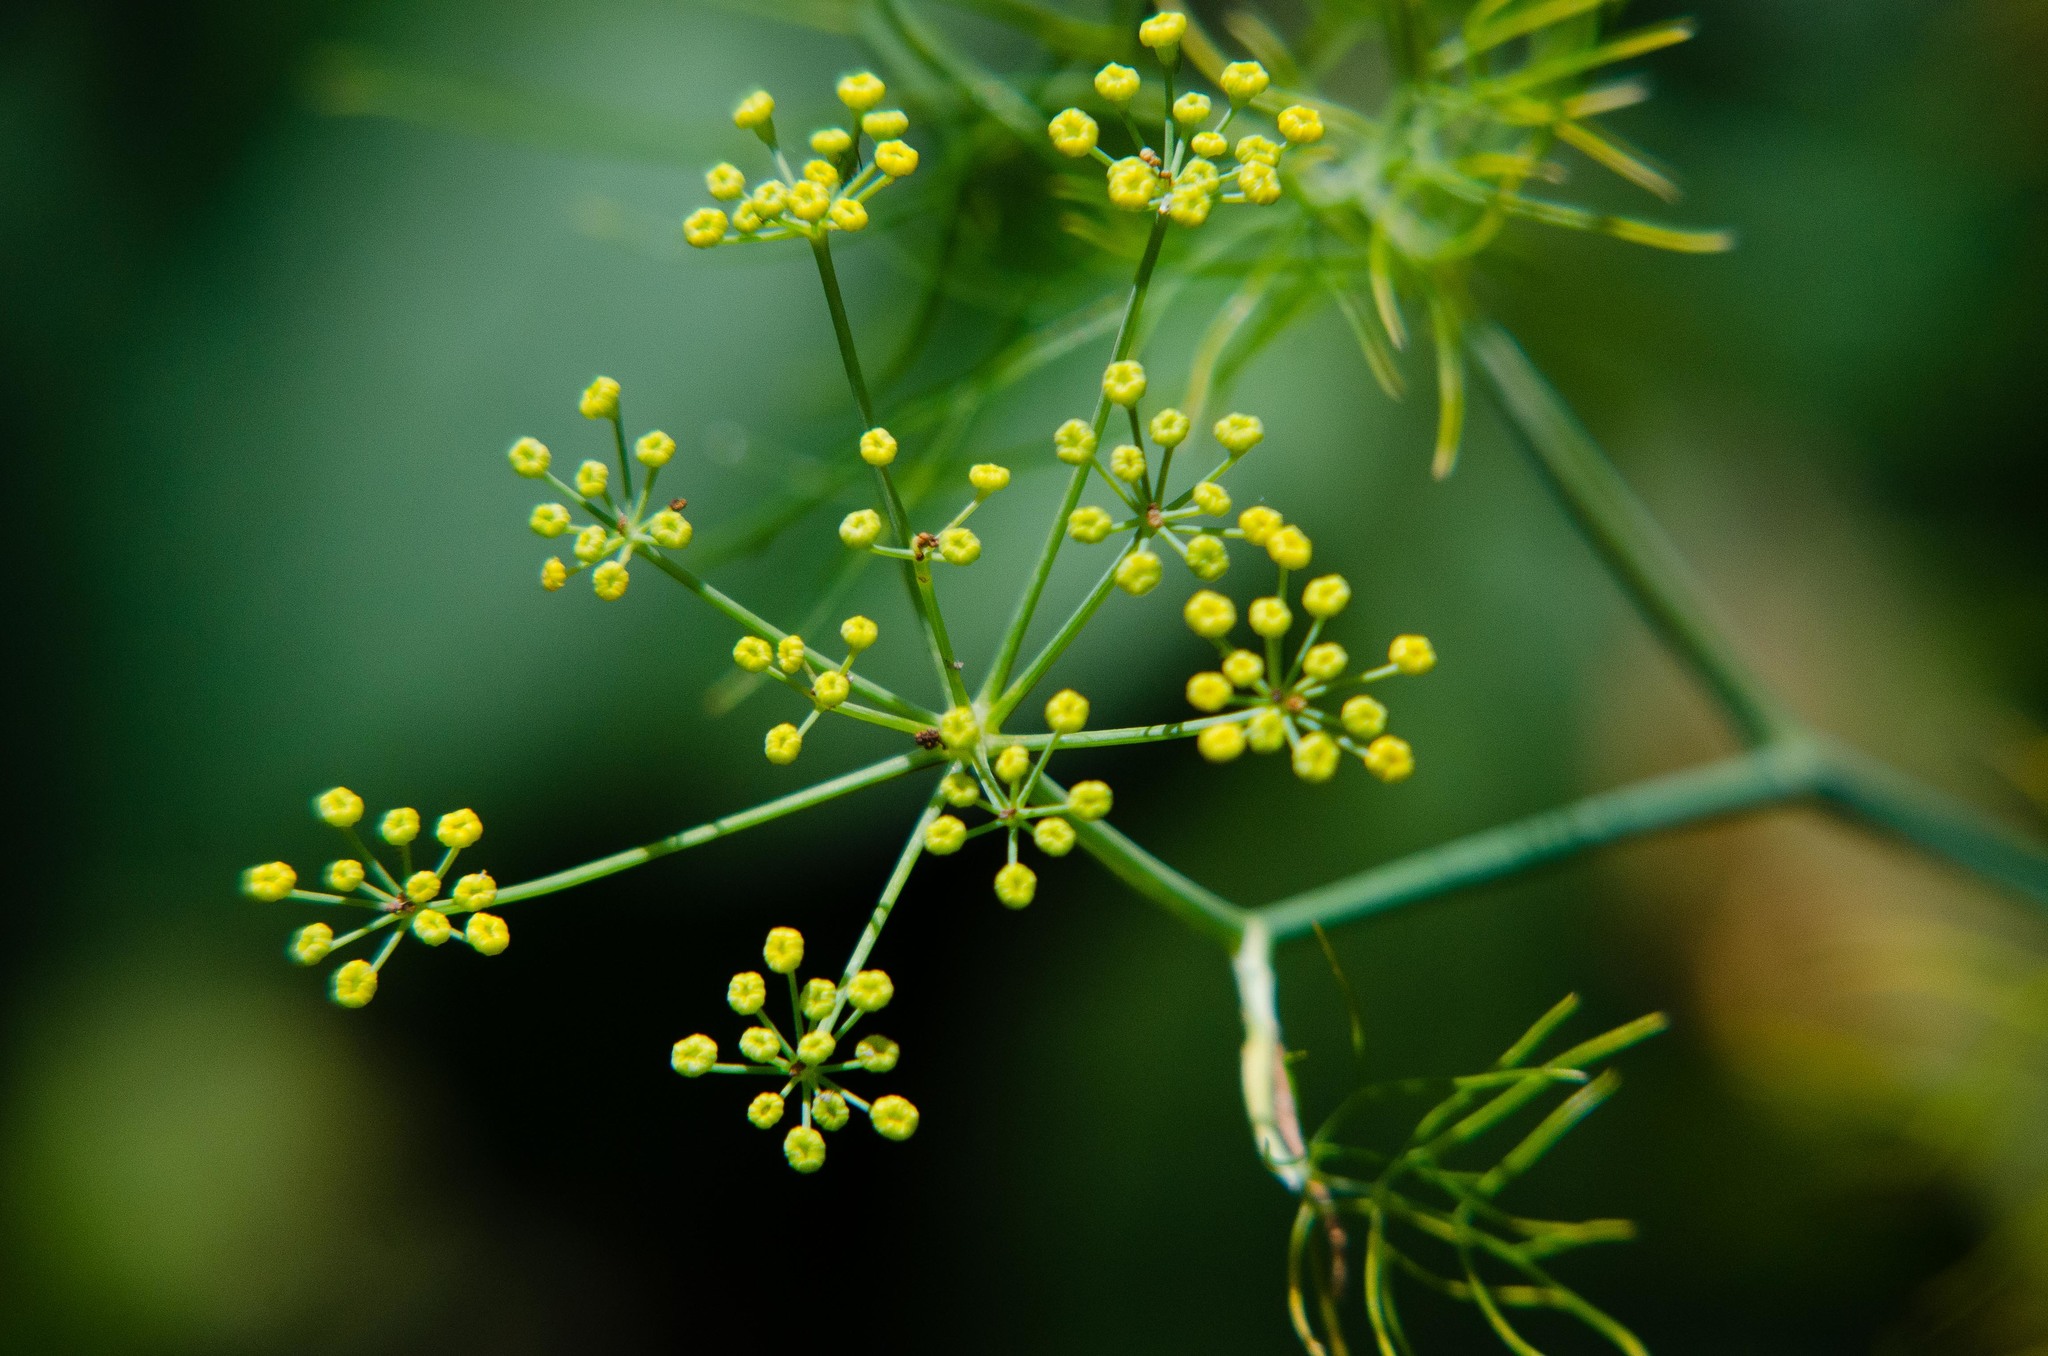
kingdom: Plantae
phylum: Tracheophyta
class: Magnoliopsida
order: Apiales
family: Apiaceae
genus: Foeniculum
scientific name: Foeniculum vulgare
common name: Fennel
